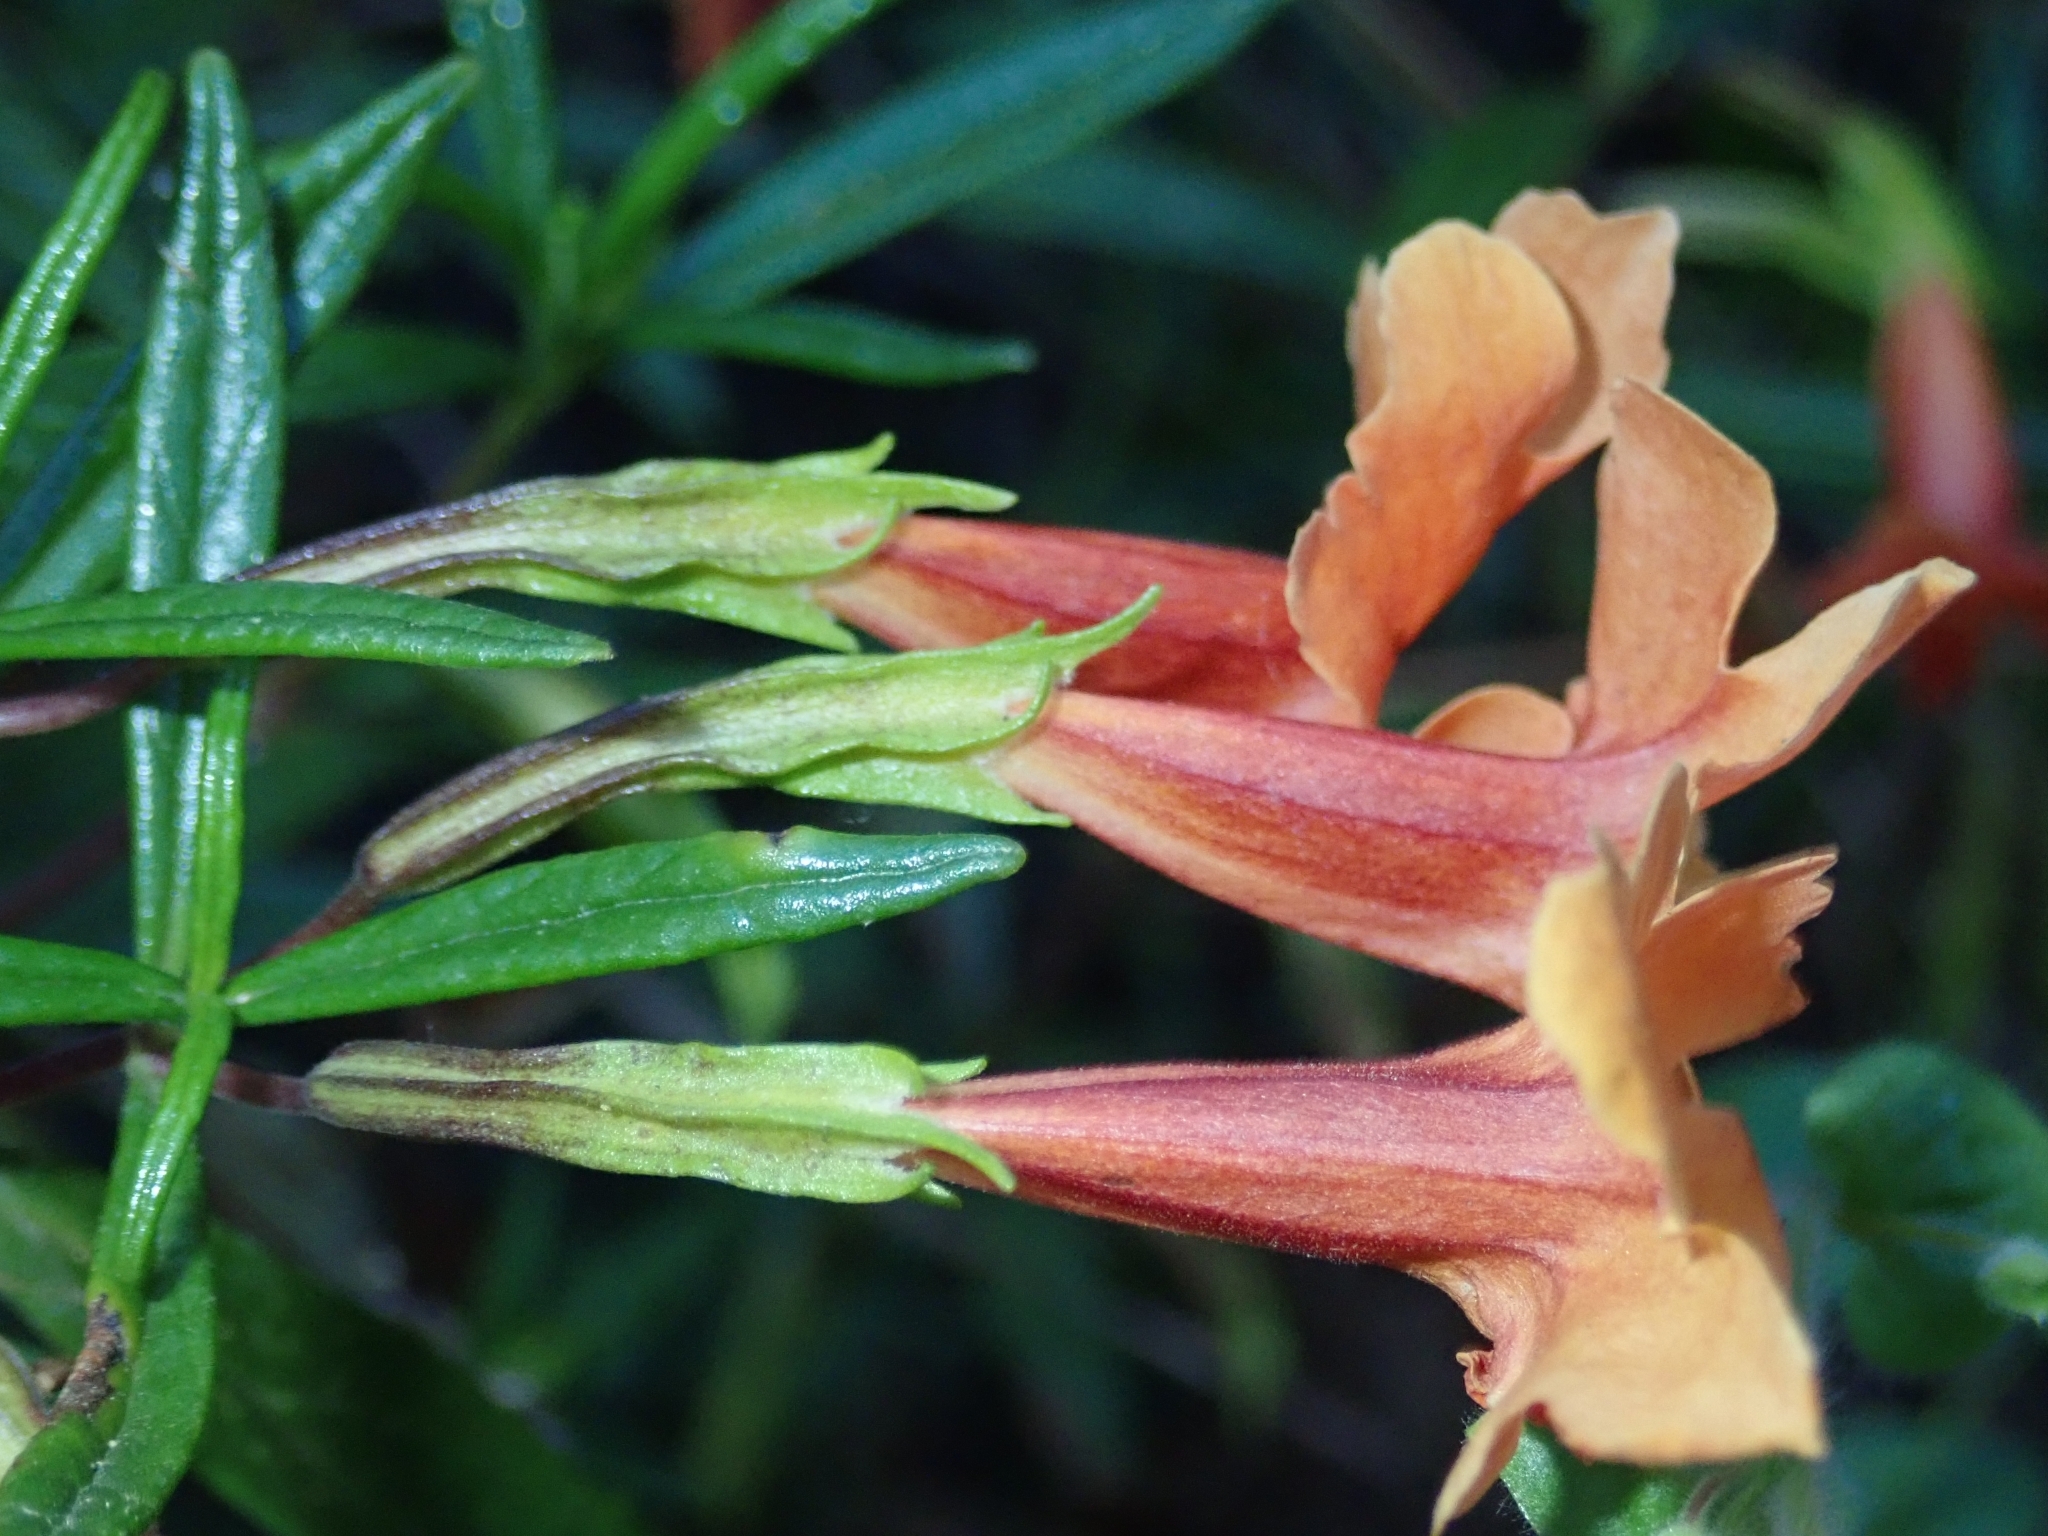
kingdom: Plantae
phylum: Tracheophyta
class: Magnoliopsida
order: Lamiales
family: Phrymaceae
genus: Diplacus
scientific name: Diplacus australis
